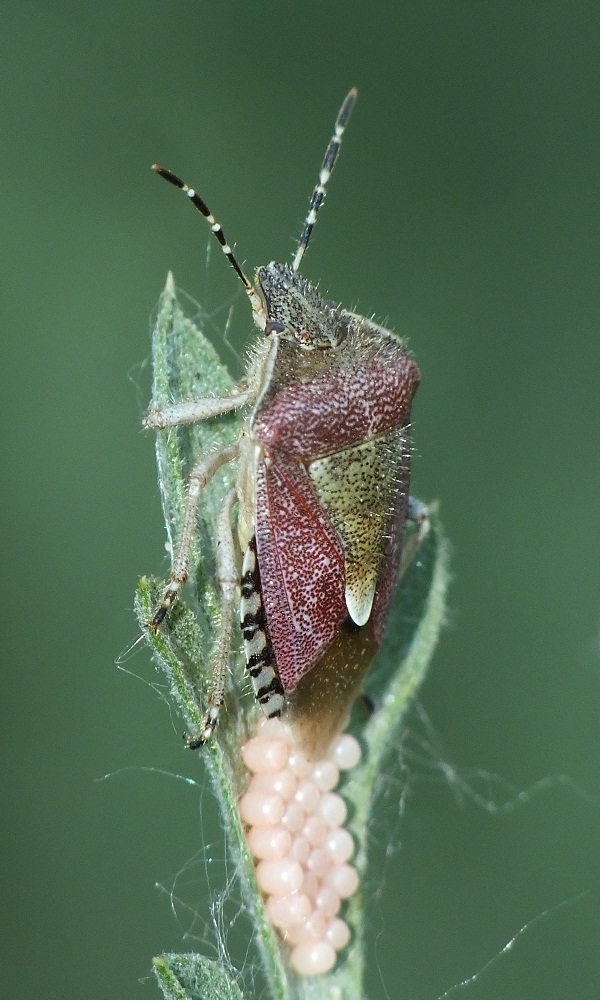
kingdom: Animalia
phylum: Arthropoda
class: Insecta
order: Hemiptera
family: Pentatomidae
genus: Dolycoris
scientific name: Dolycoris baccarum
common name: Sloe bug
